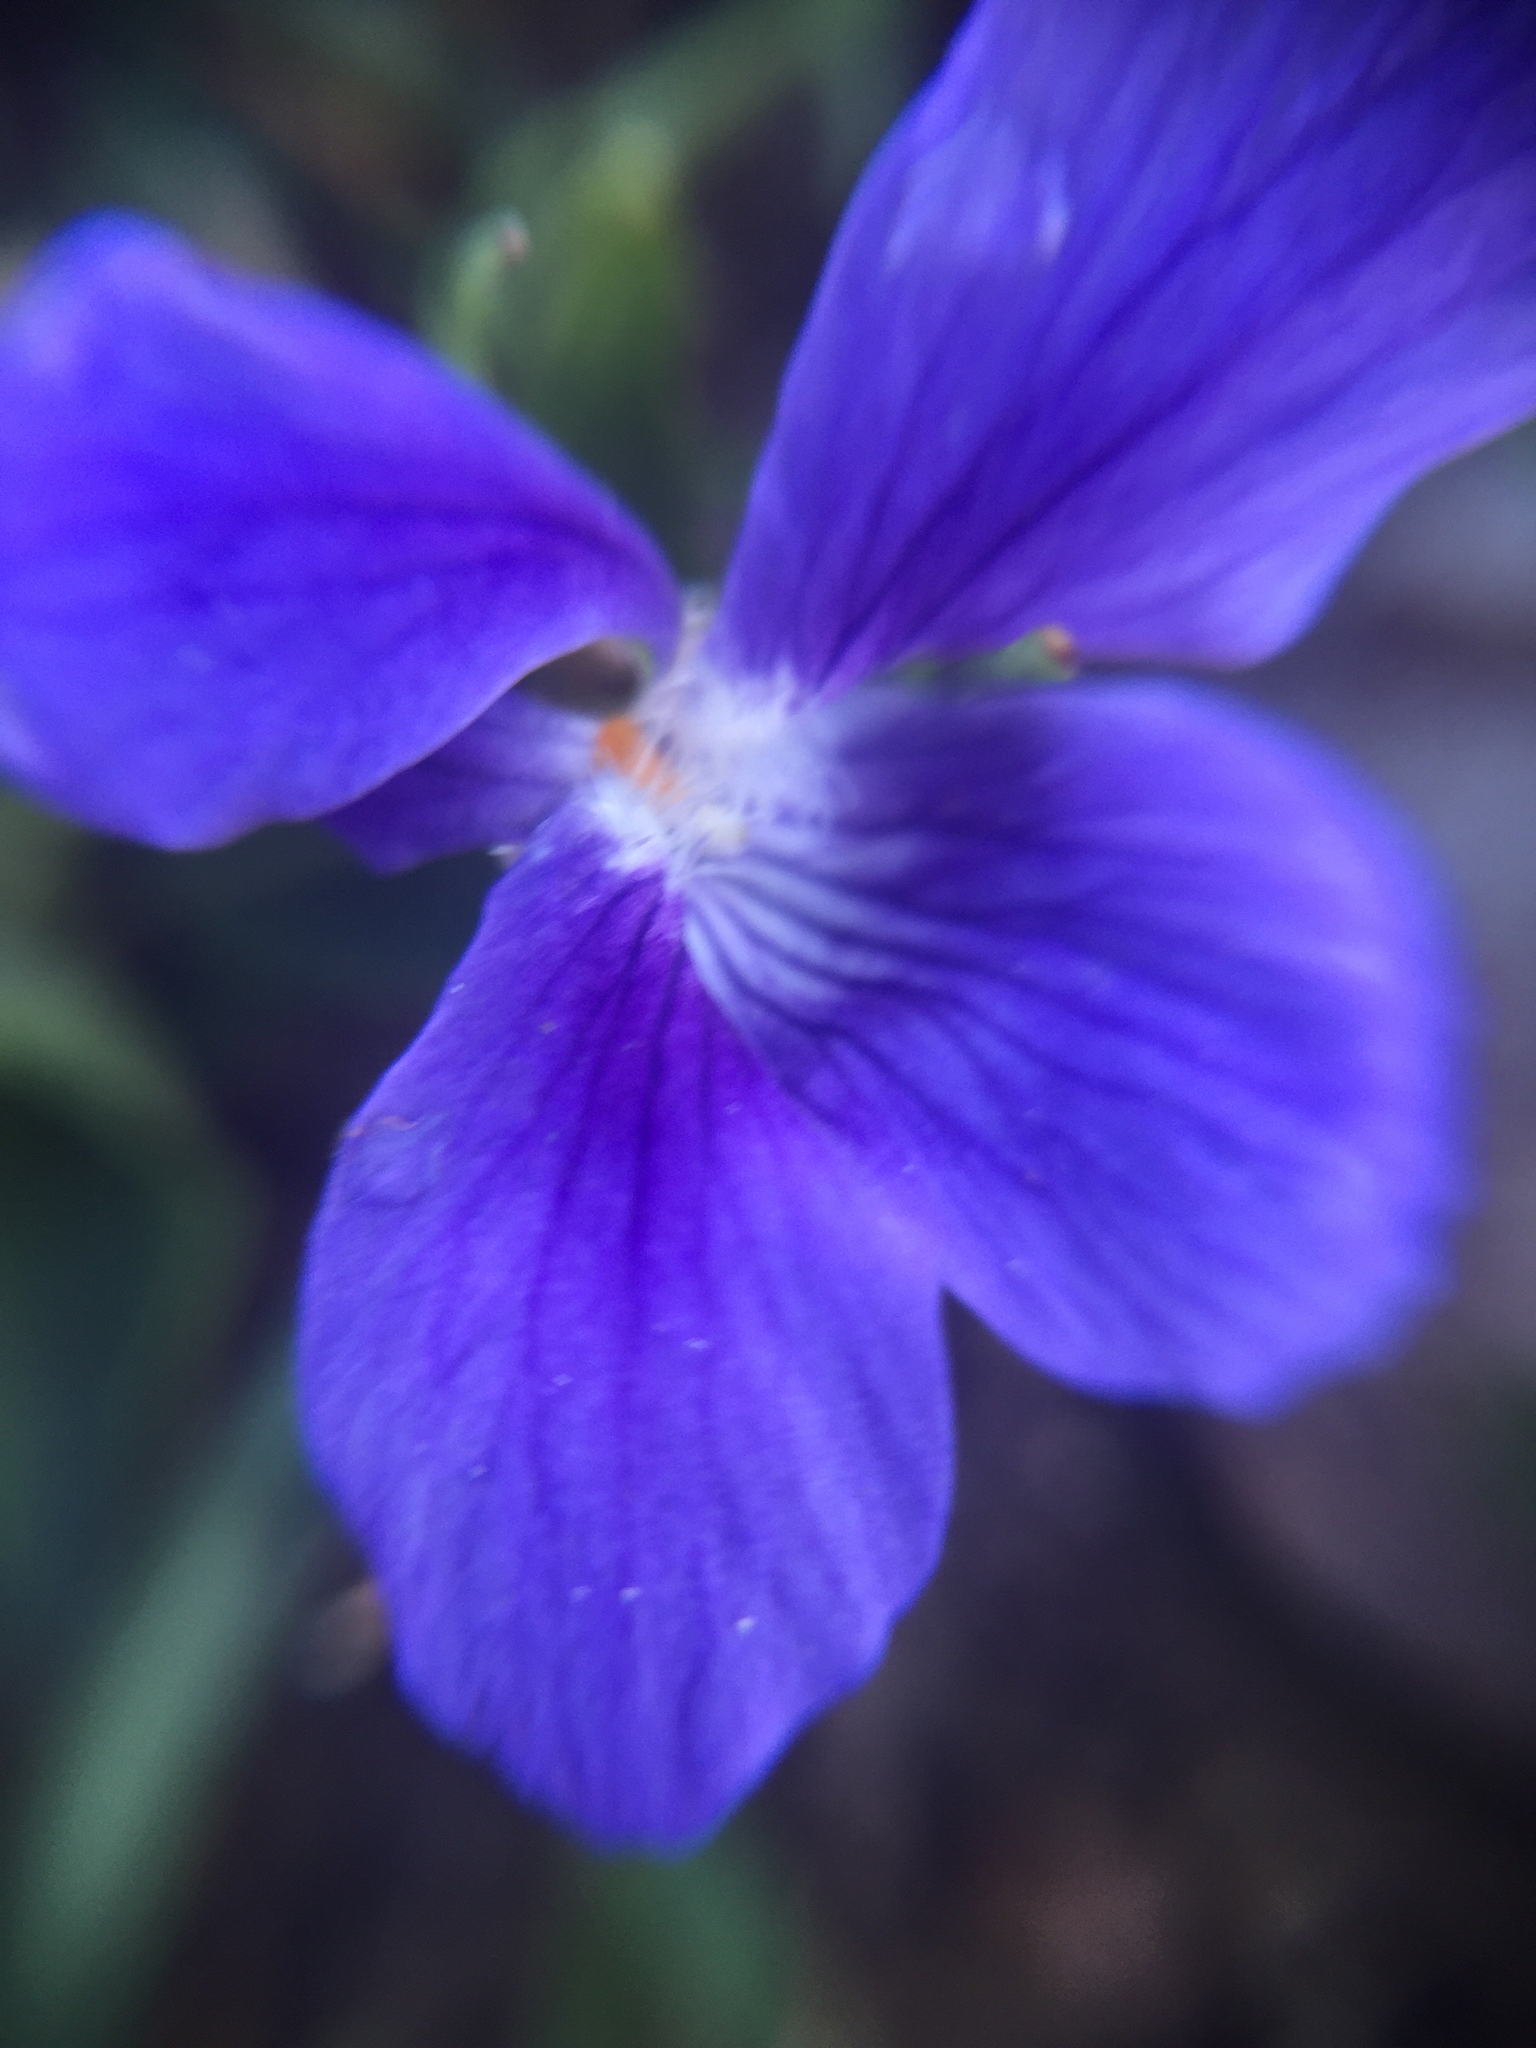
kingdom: Plantae
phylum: Tracheophyta
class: Magnoliopsida
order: Malpighiales
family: Violaceae
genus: Viola
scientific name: Viola adunca
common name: Sand violet
